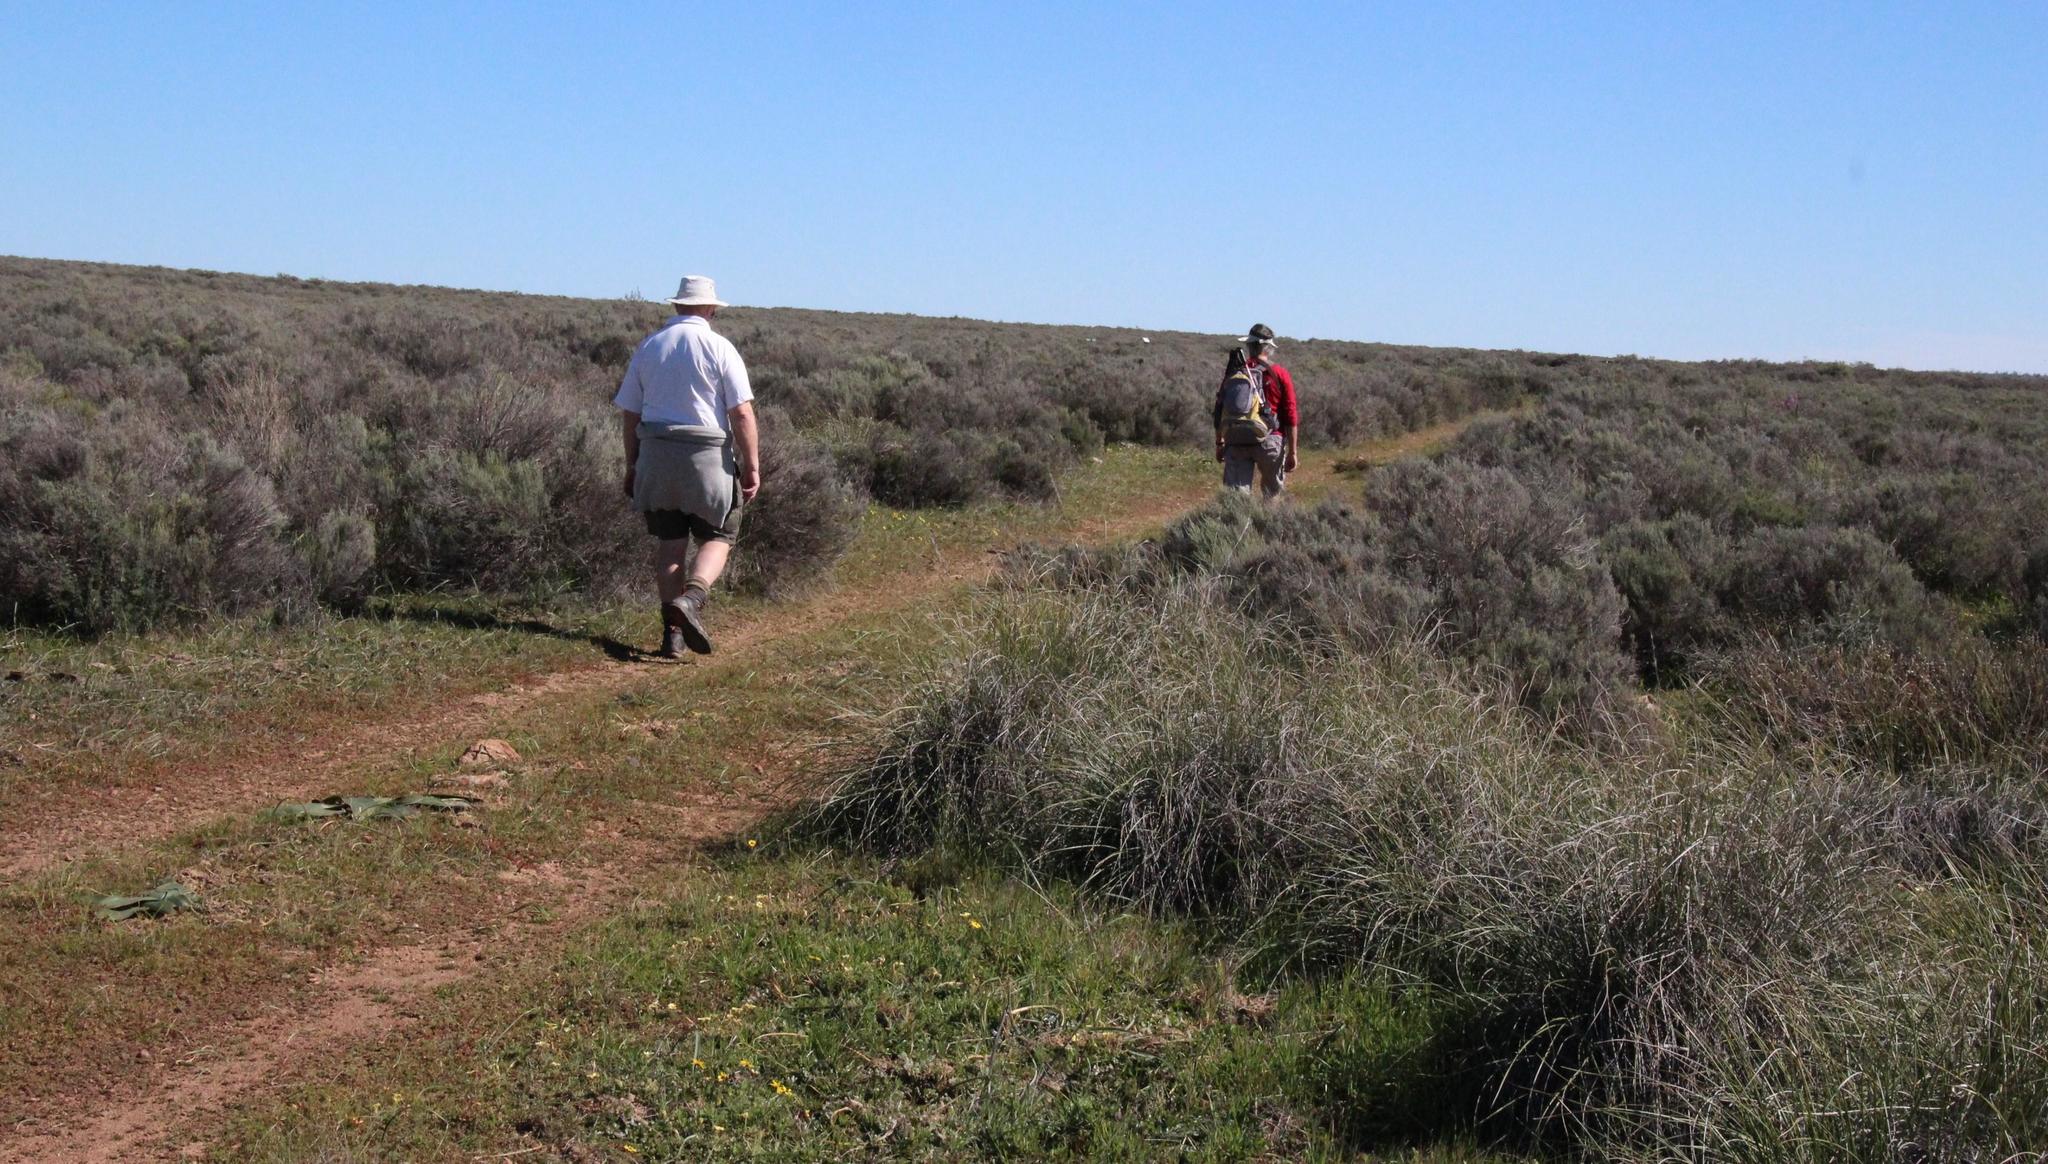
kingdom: Plantae
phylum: Tracheophyta
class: Magnoliopsida
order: Asterales
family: Asteraceae
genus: Dicerothamnus
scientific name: Dicerothamnus rhinocerotis
